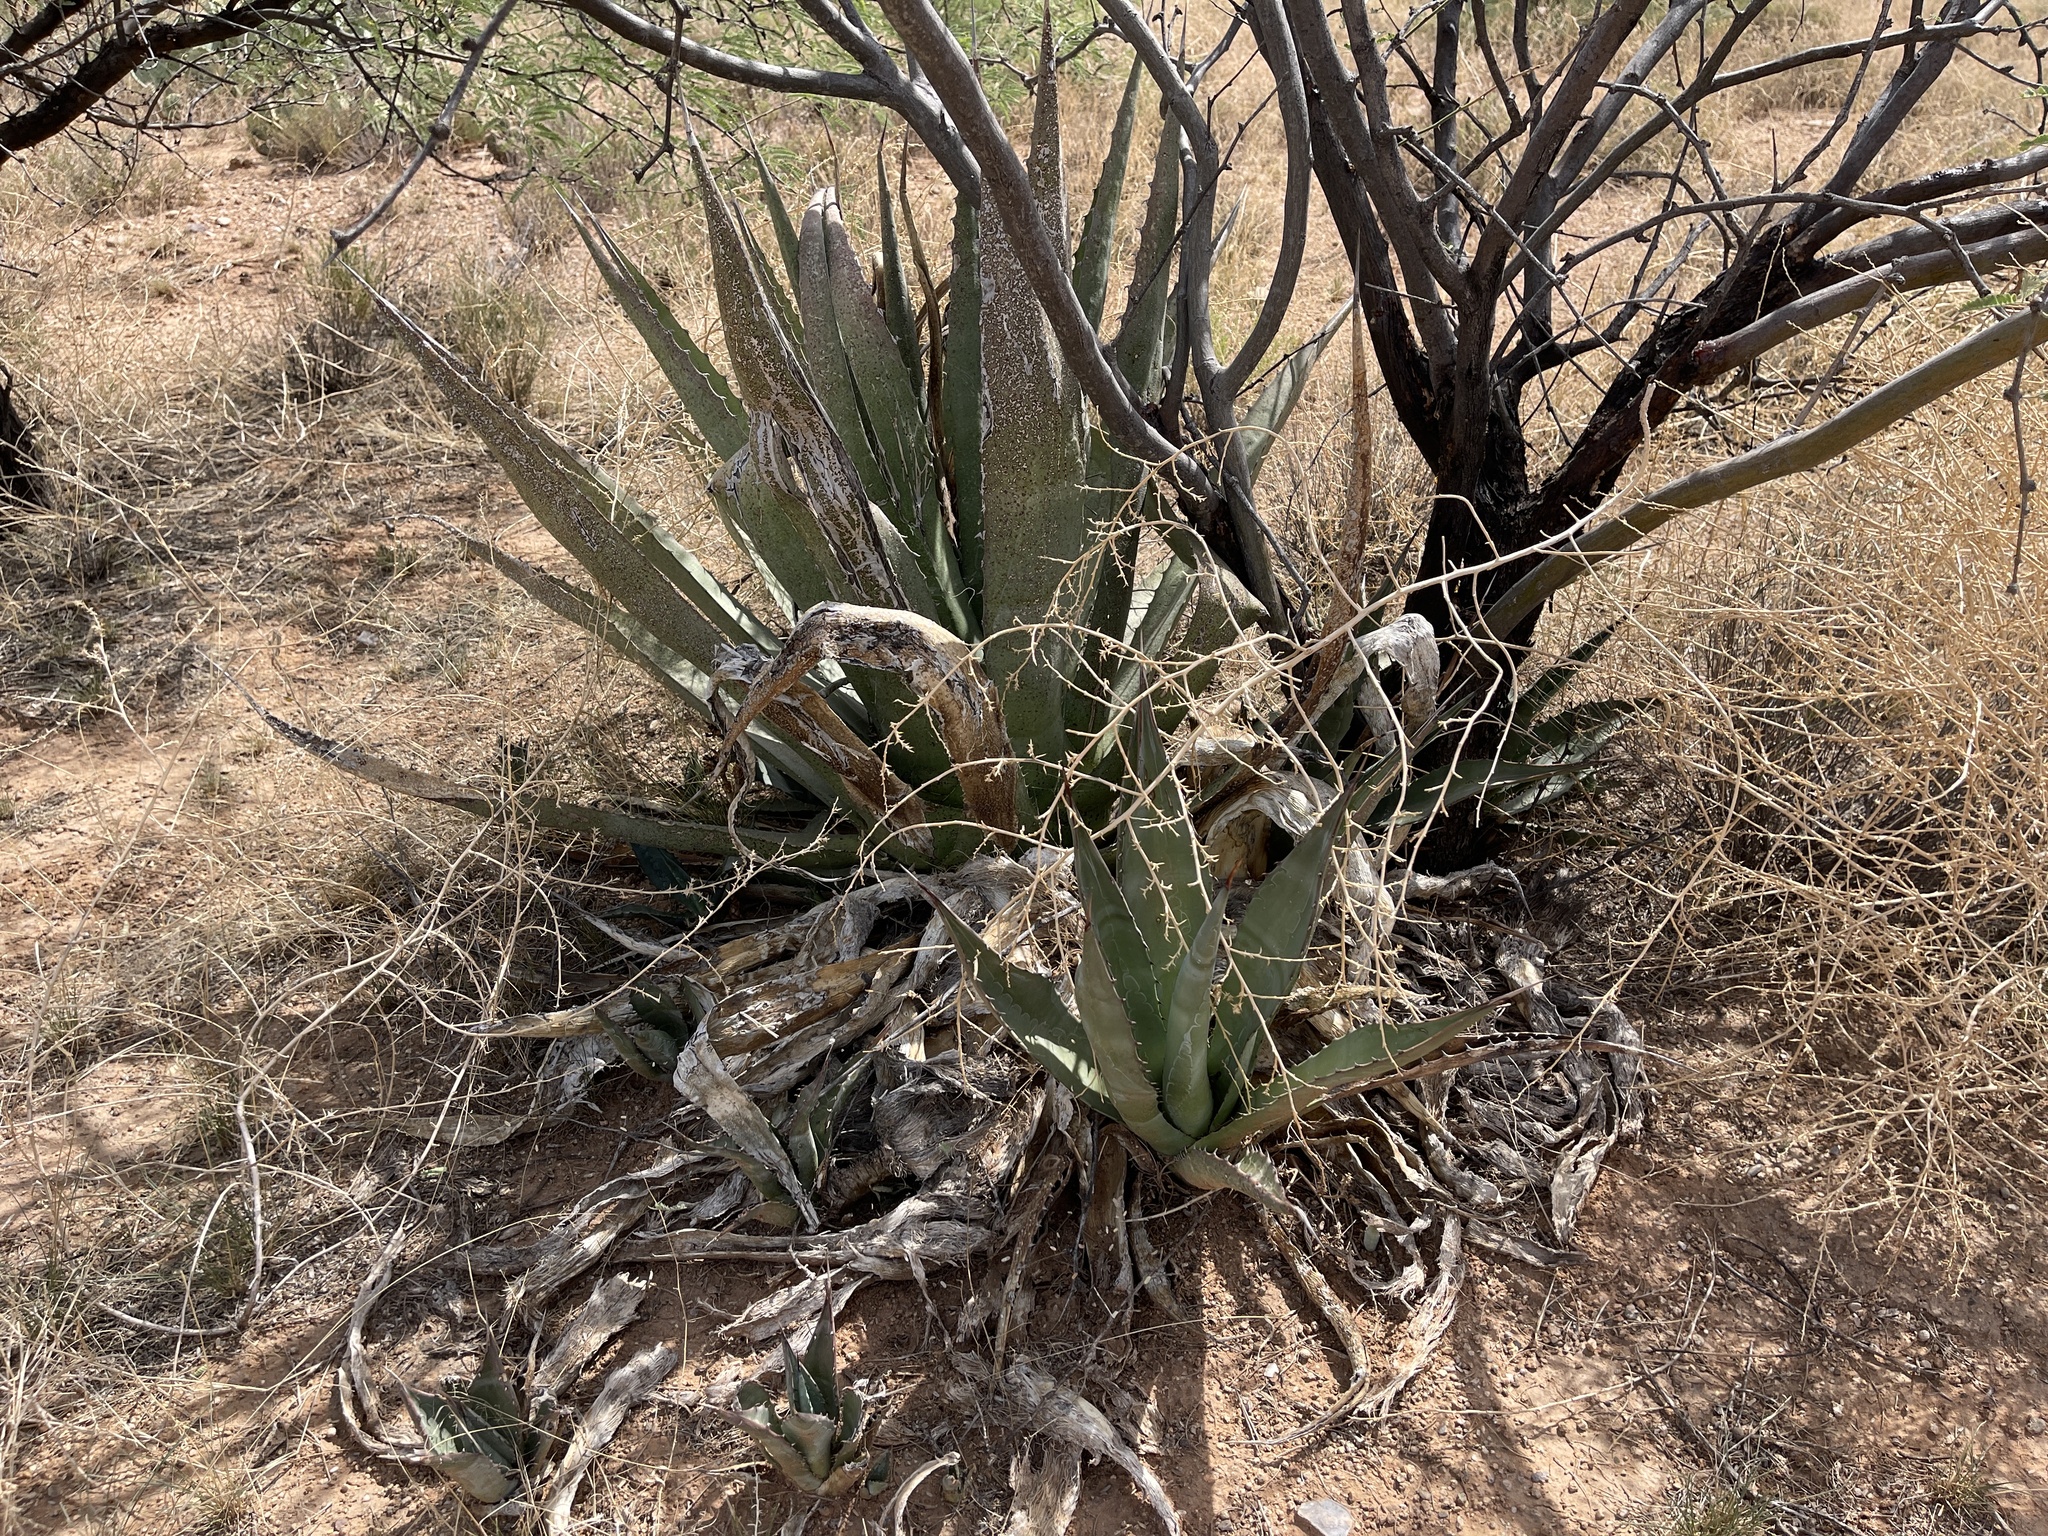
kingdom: Plantae
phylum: Tracheophyta
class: Liliopsida
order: Asparagales
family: Asparagaceae
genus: Agave
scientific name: Agave palmeri
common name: Palmer agave
